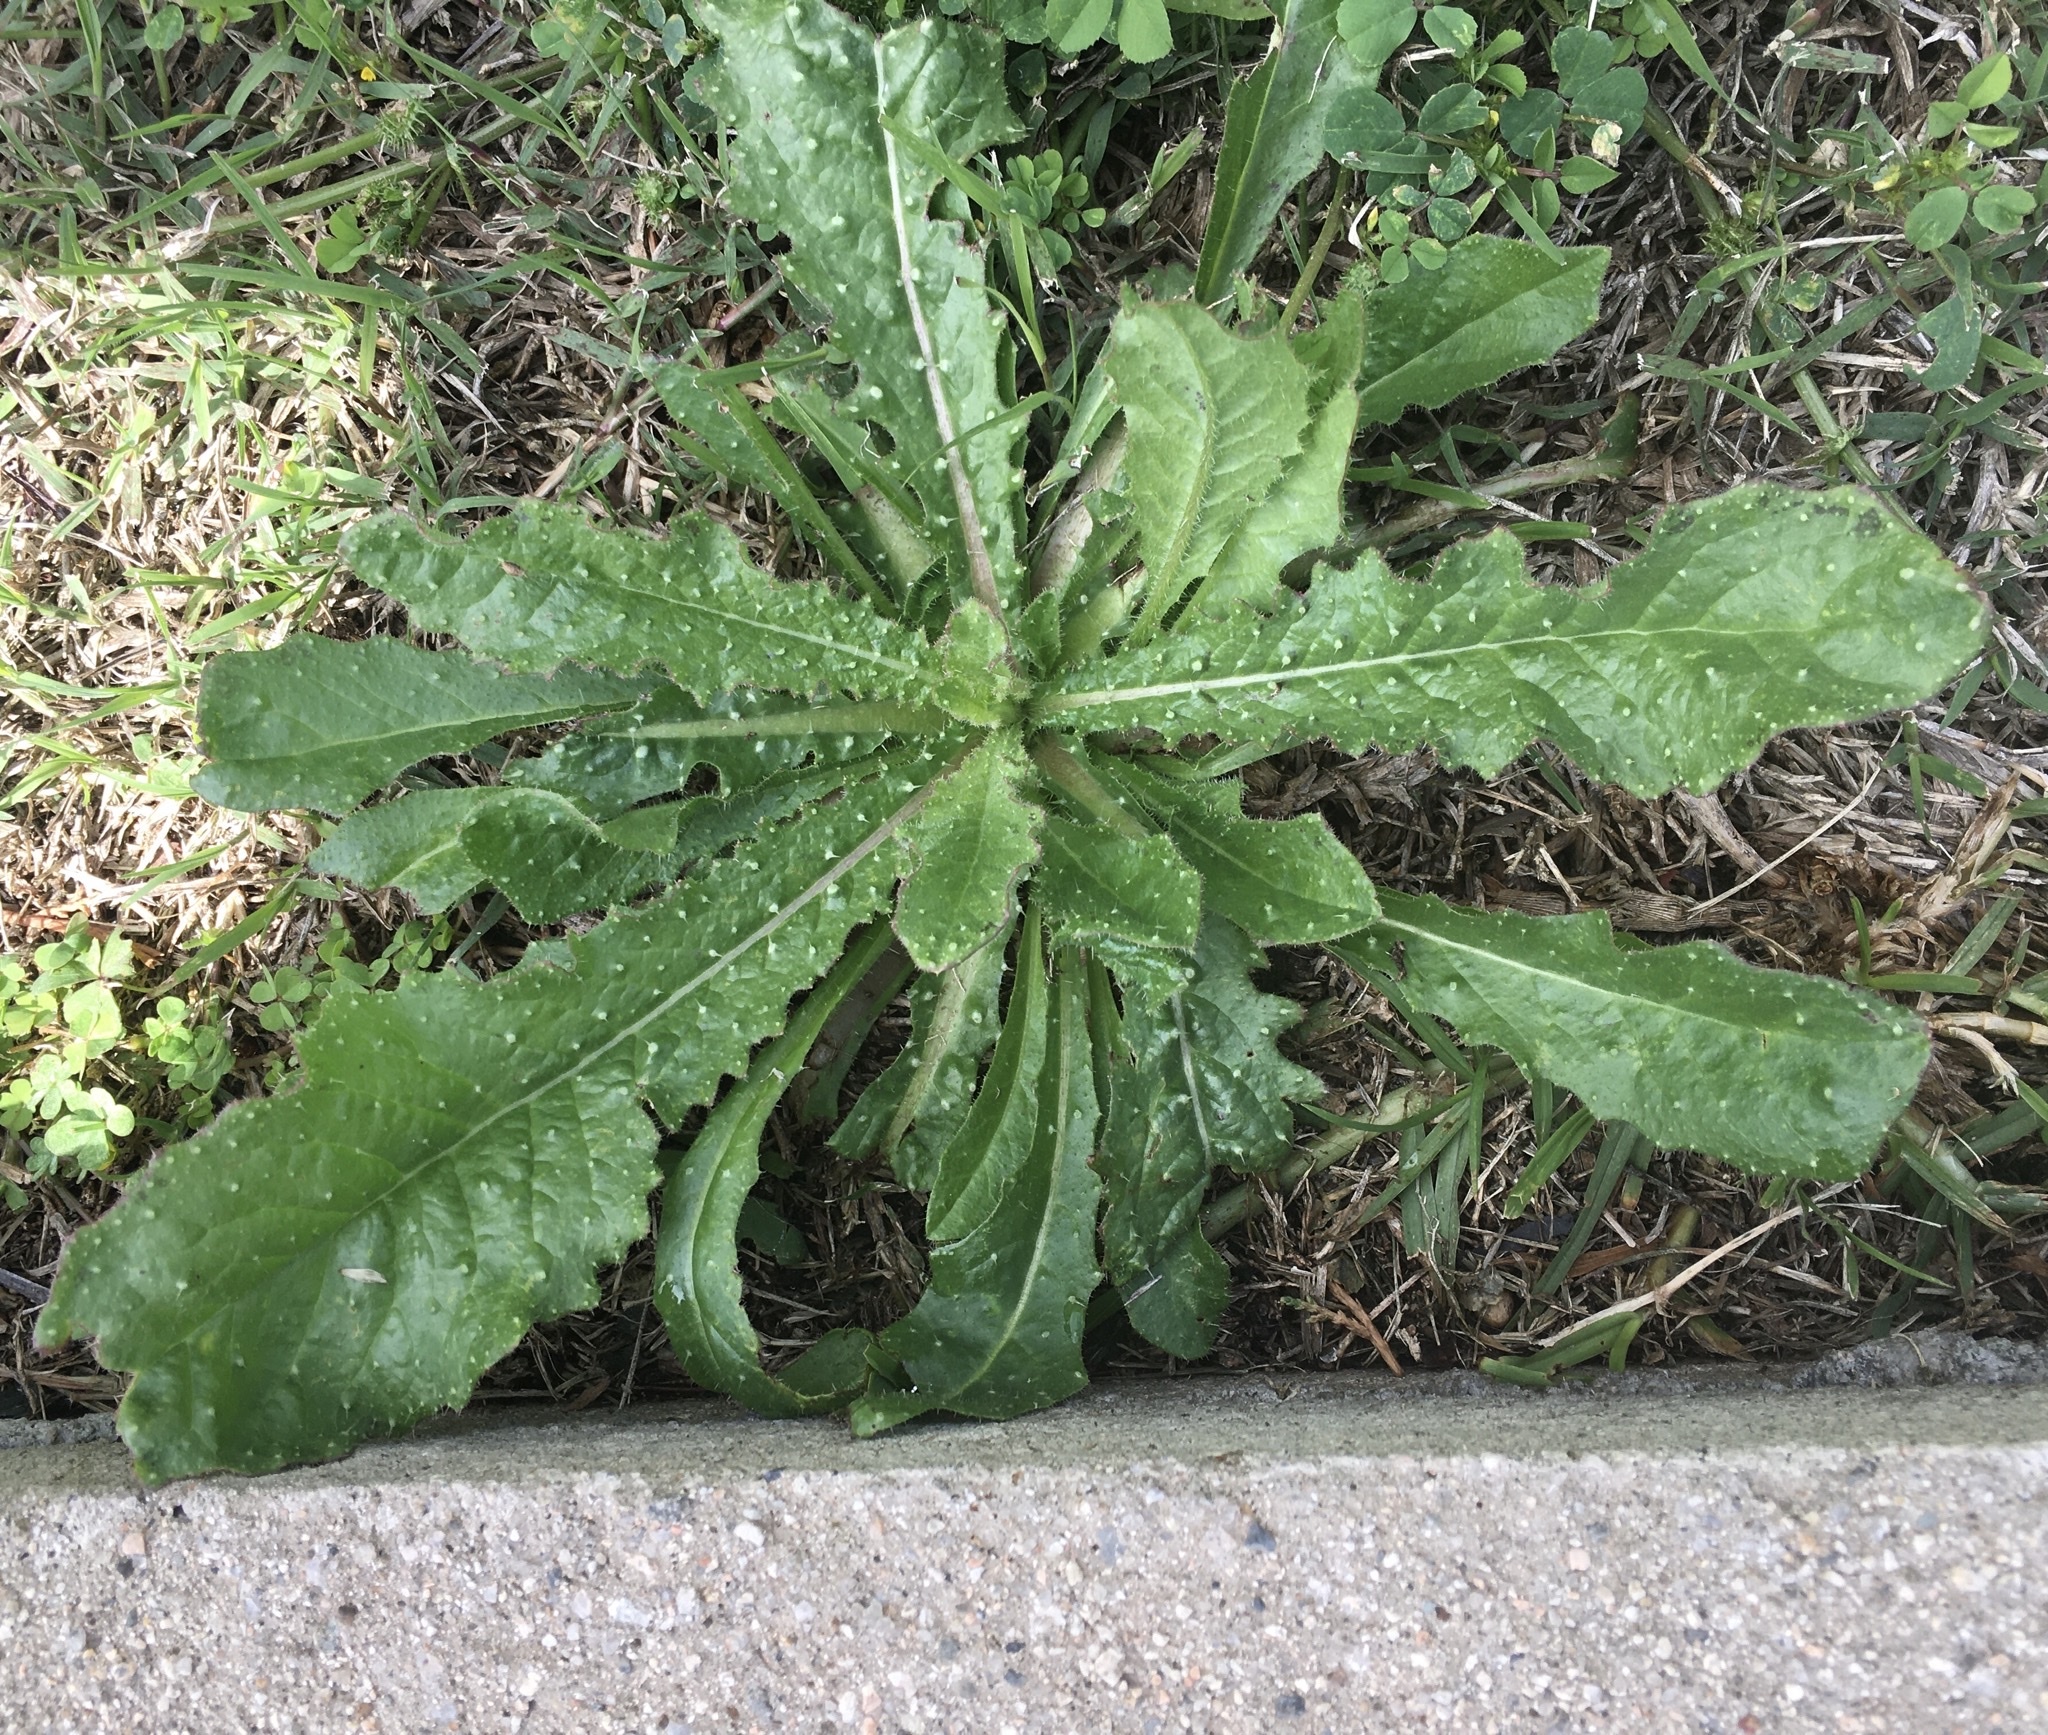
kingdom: Plantae
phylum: Tracheophyta
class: Magnoliopsida
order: Asterales
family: Asteraceae
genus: Helminthotheca
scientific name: Helminthotheca echioides
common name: Ox-tongue
